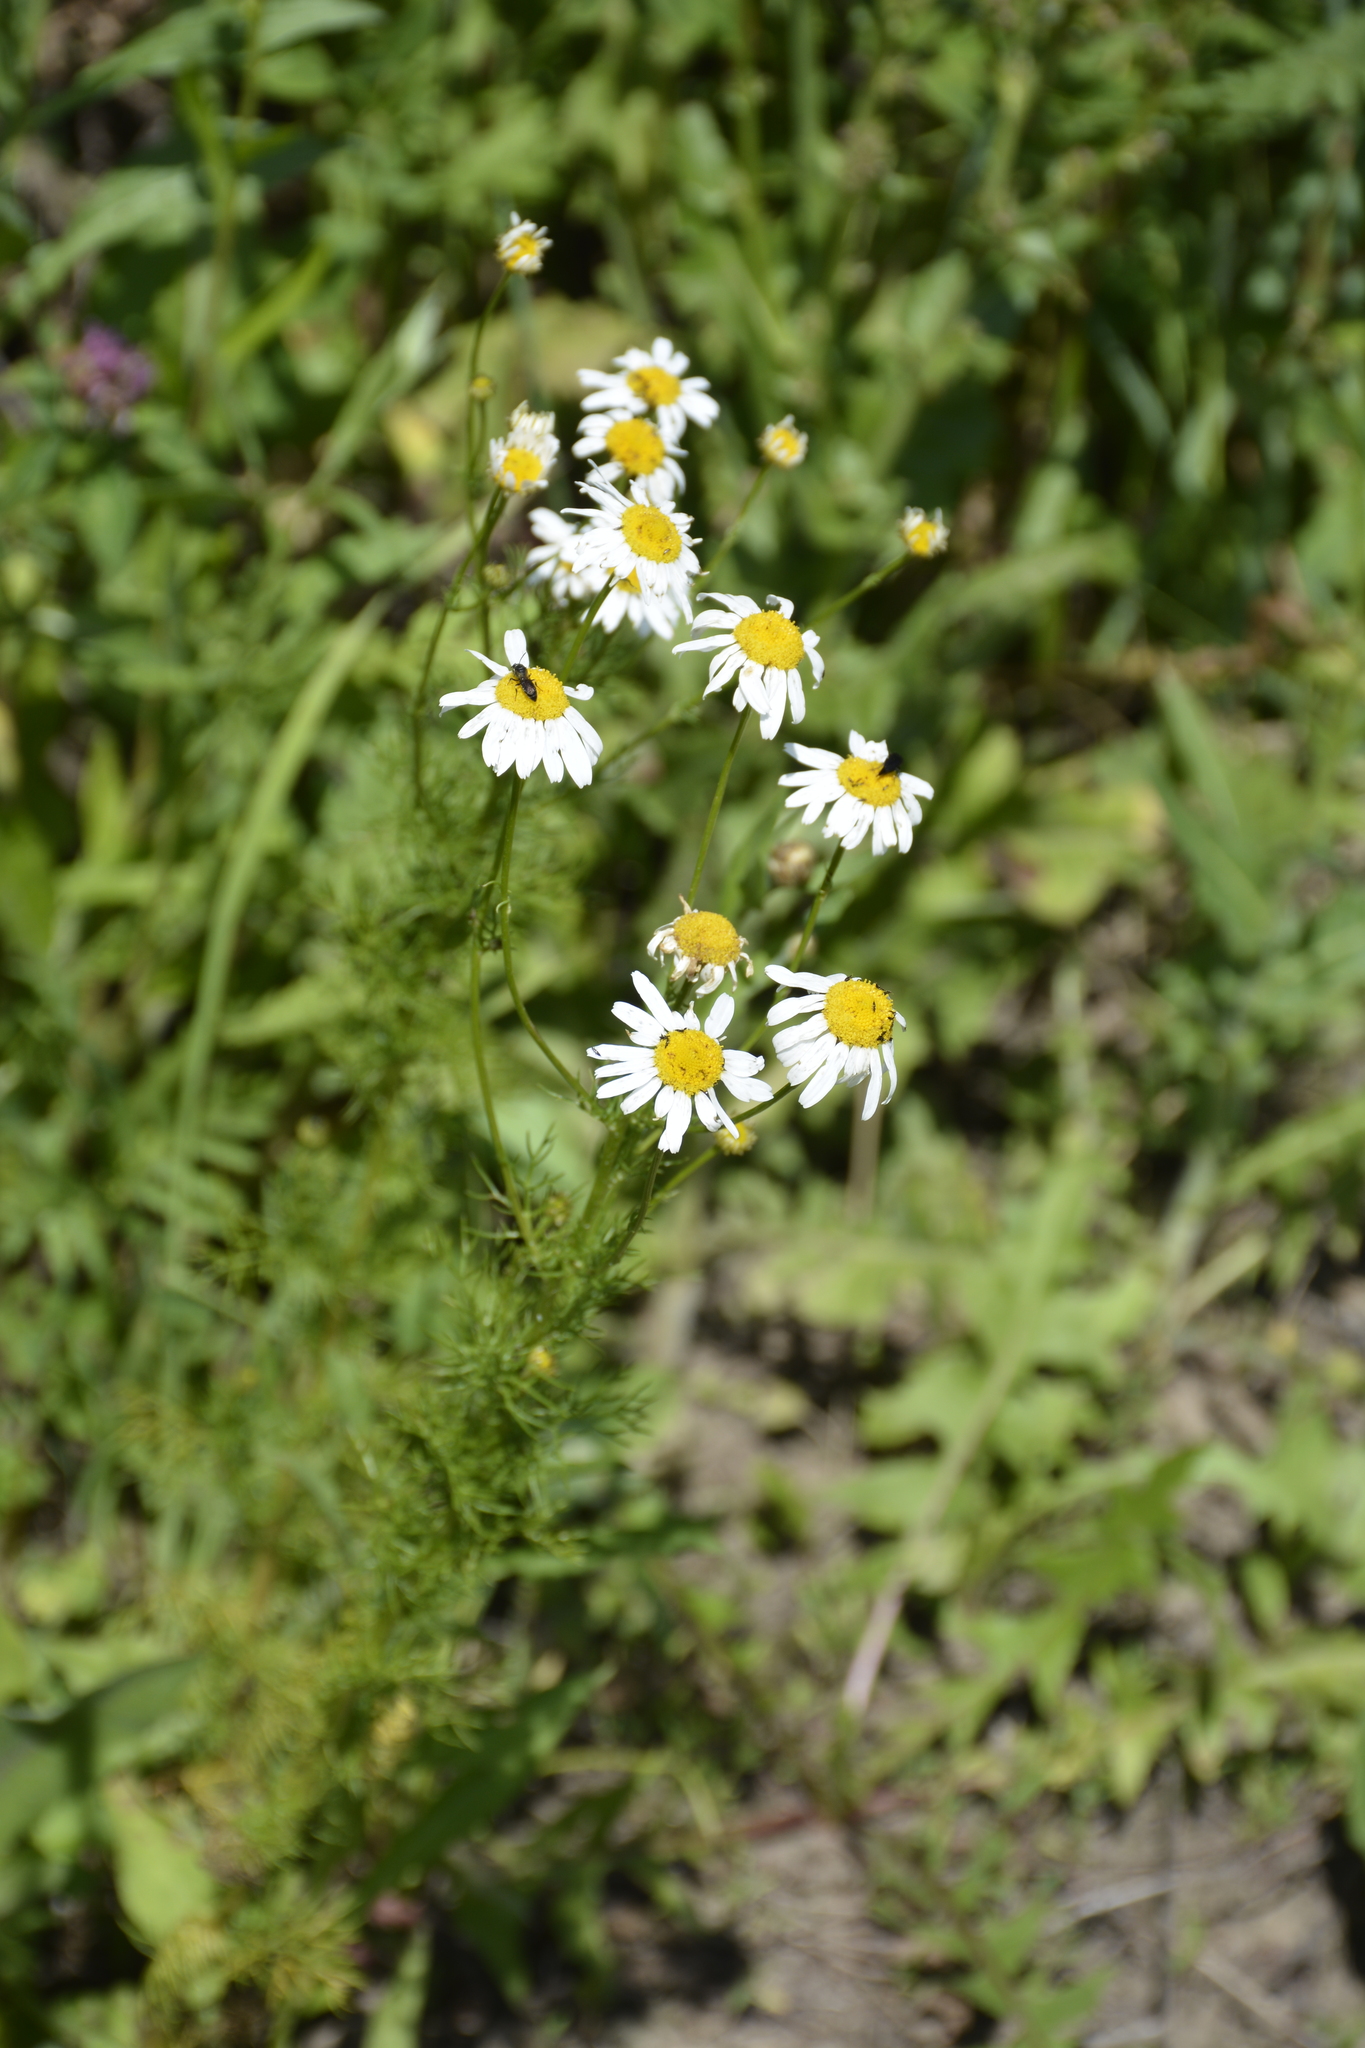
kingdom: Plantae
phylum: Tracheophyta
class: Magnoliopsida
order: Asterales
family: Asteraceae
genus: Tripleurospermum
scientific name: Tripleurospermum inodorum
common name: Scentless mayweed
